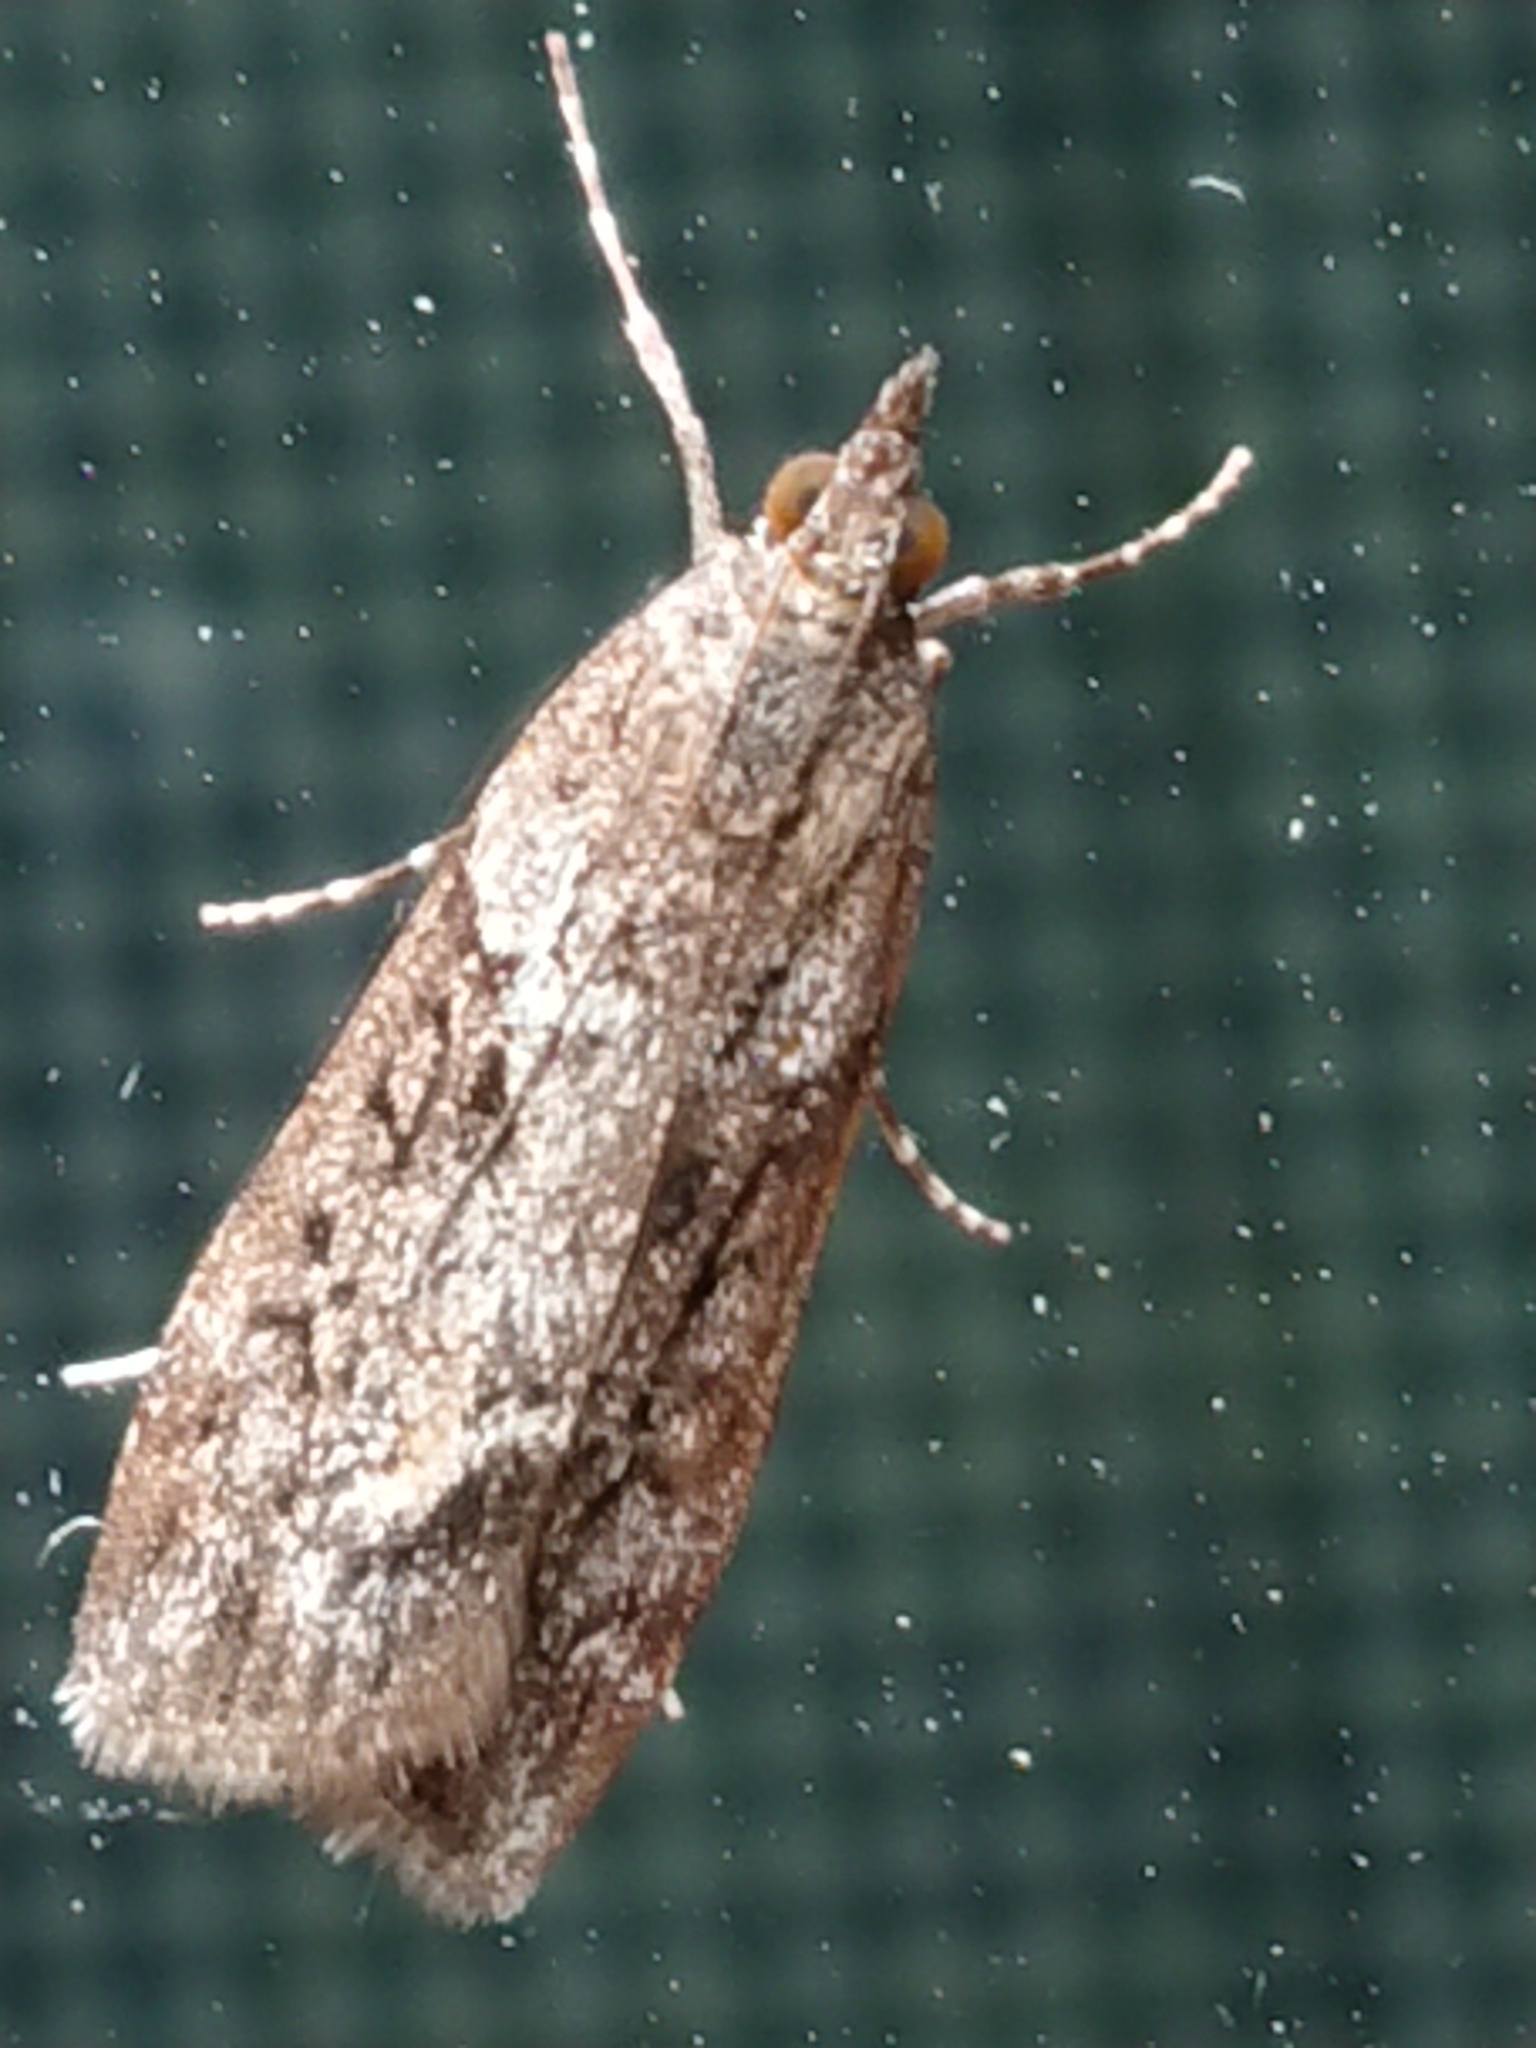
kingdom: Animalia
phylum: Arthropoda
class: Insecta
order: Lepidoptera
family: Crambidae
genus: Eudonia
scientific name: Eudonia submarginalis
